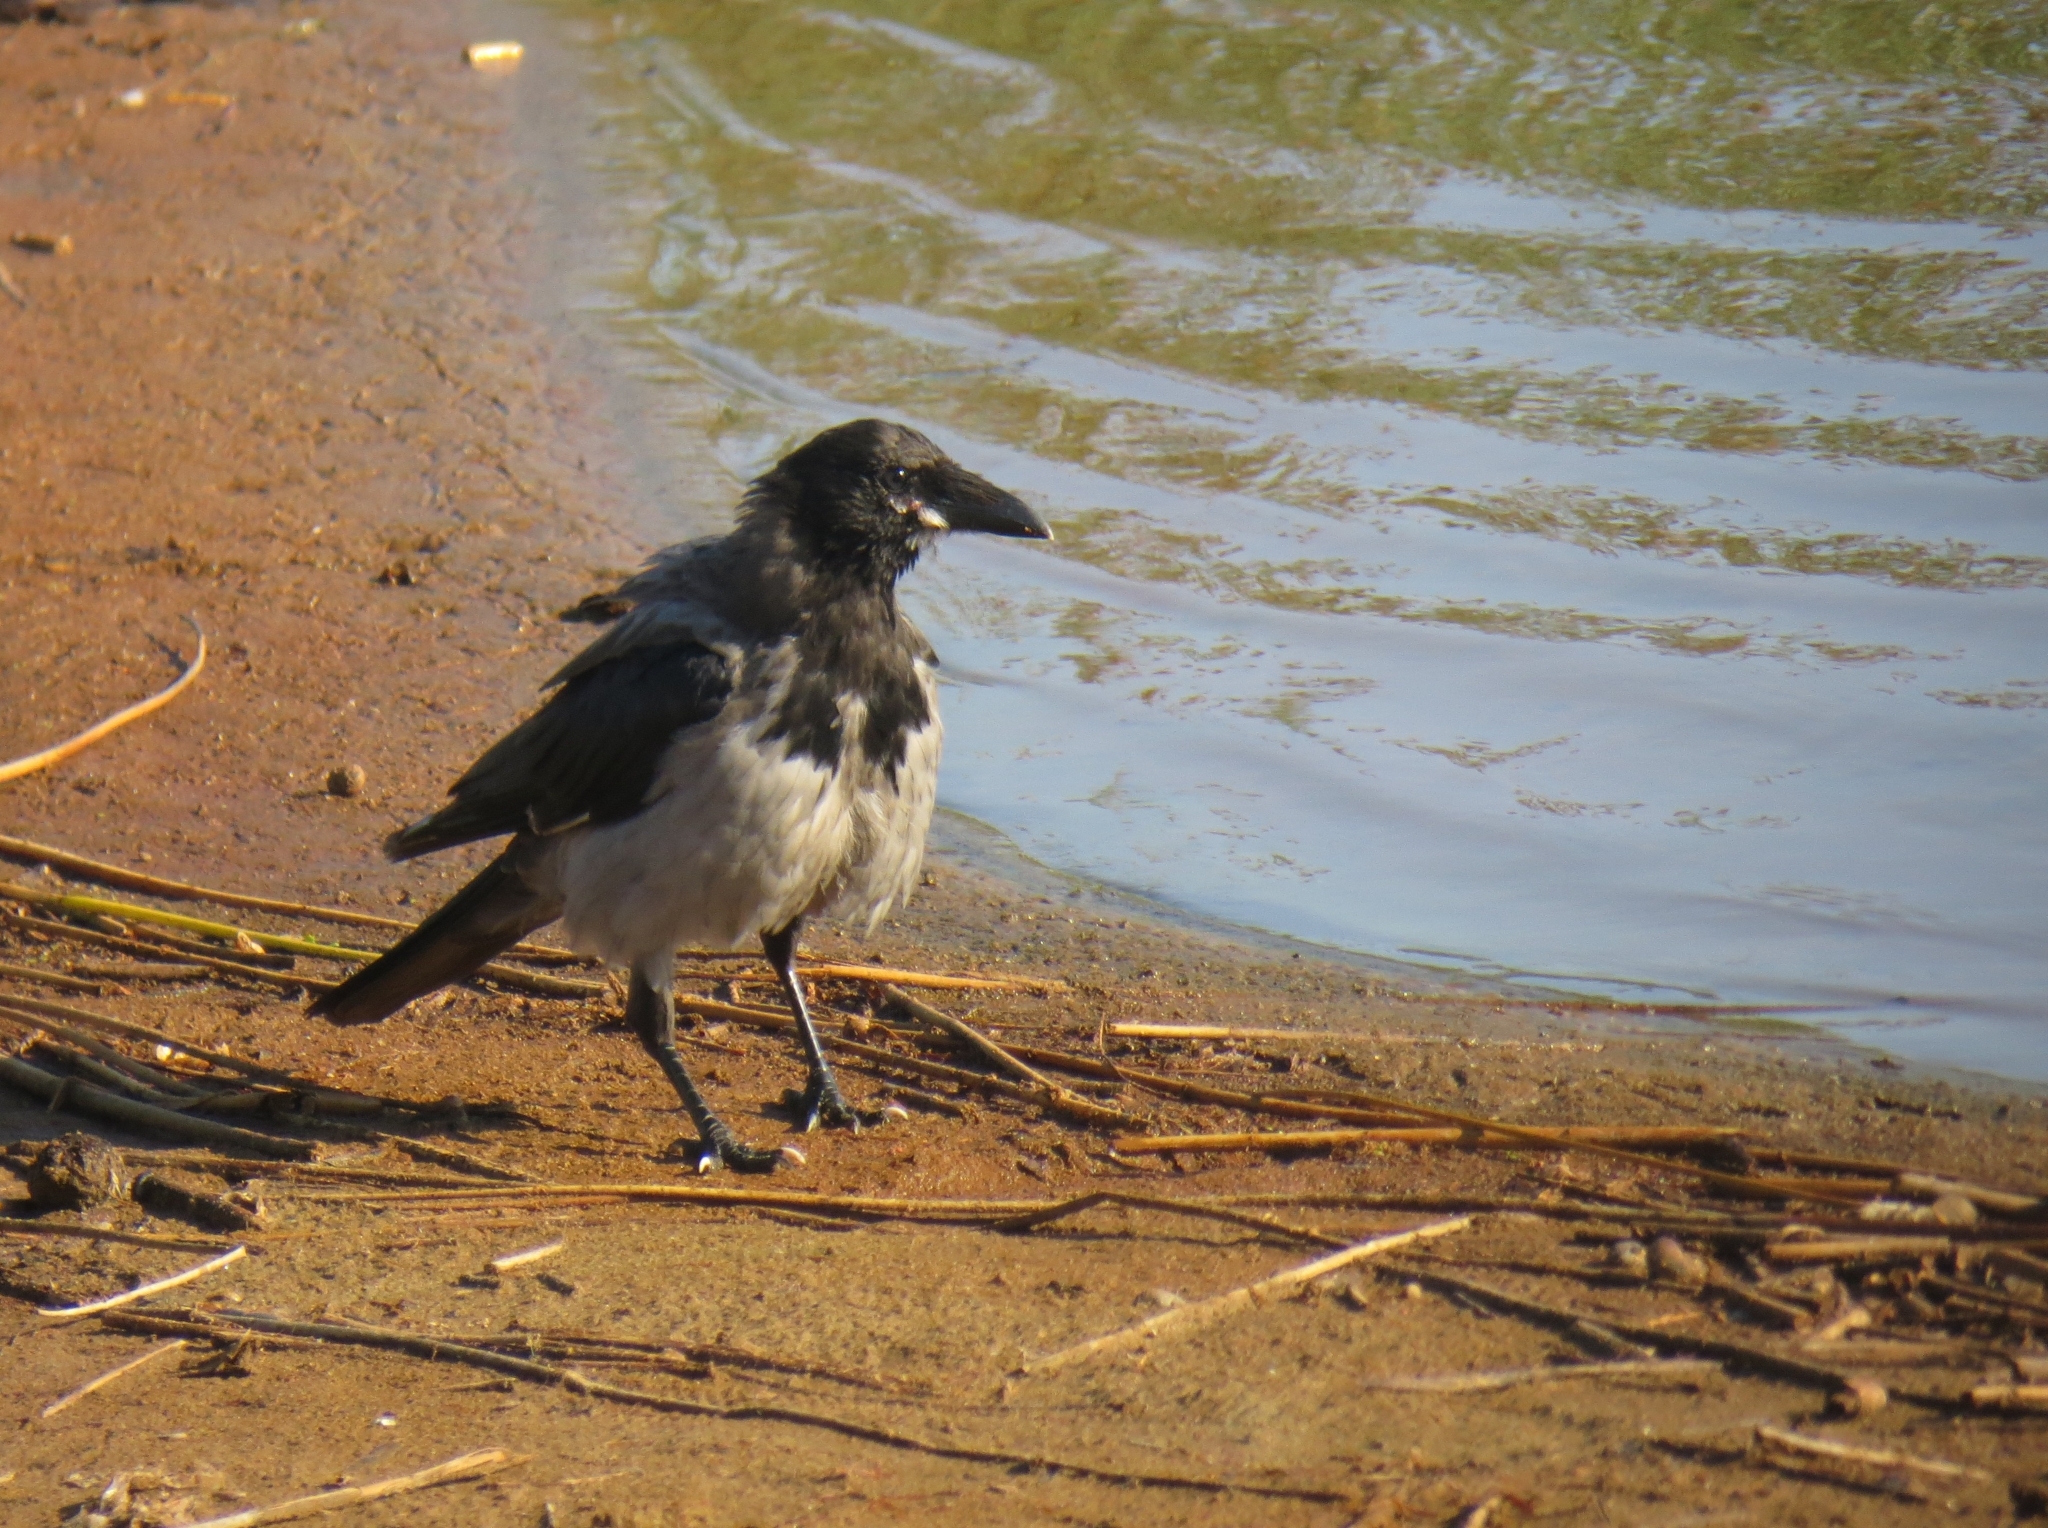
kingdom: Animalia
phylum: Chordata
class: Aves
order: Passeriformes
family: Corvidae
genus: Corvus
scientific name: Corvus cornix
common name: Hooded crow
